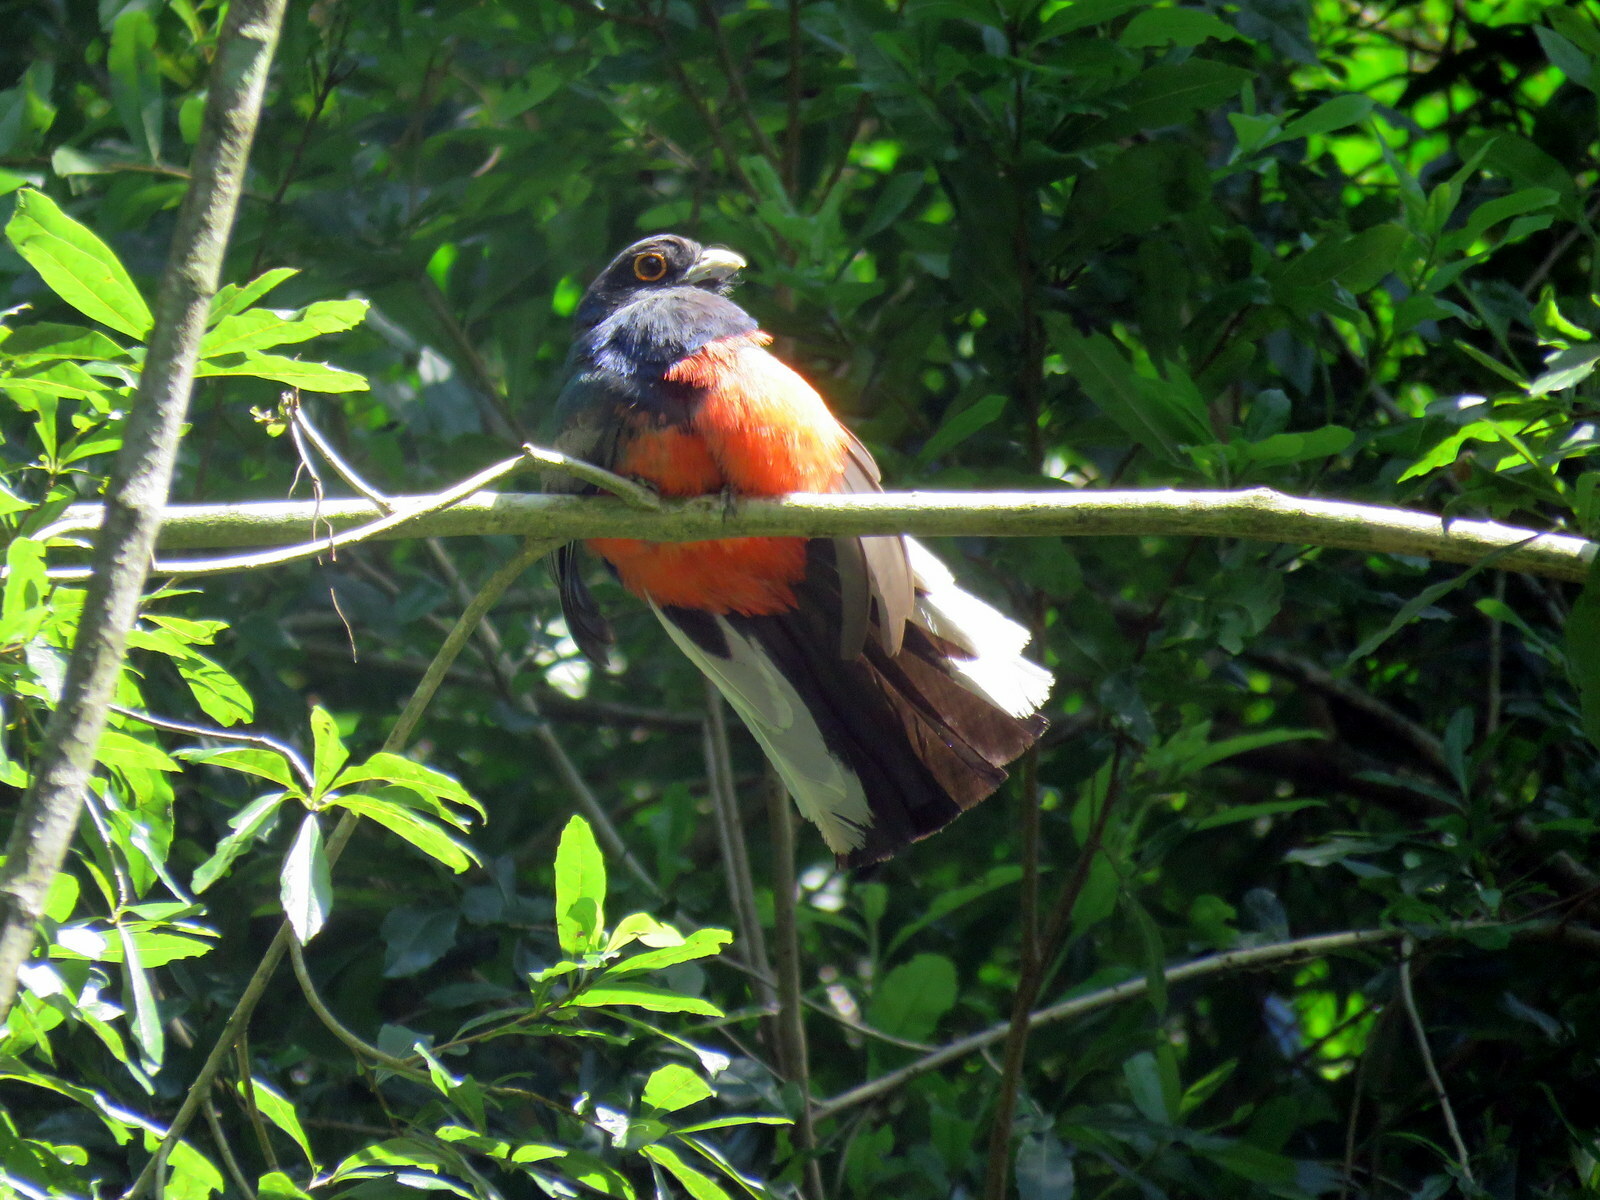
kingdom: Animalia
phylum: Chordata
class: Aves
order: Trogoniformes
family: Trogonidae
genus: Trogon
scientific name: Trogon surrucura
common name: Surucua trogon
